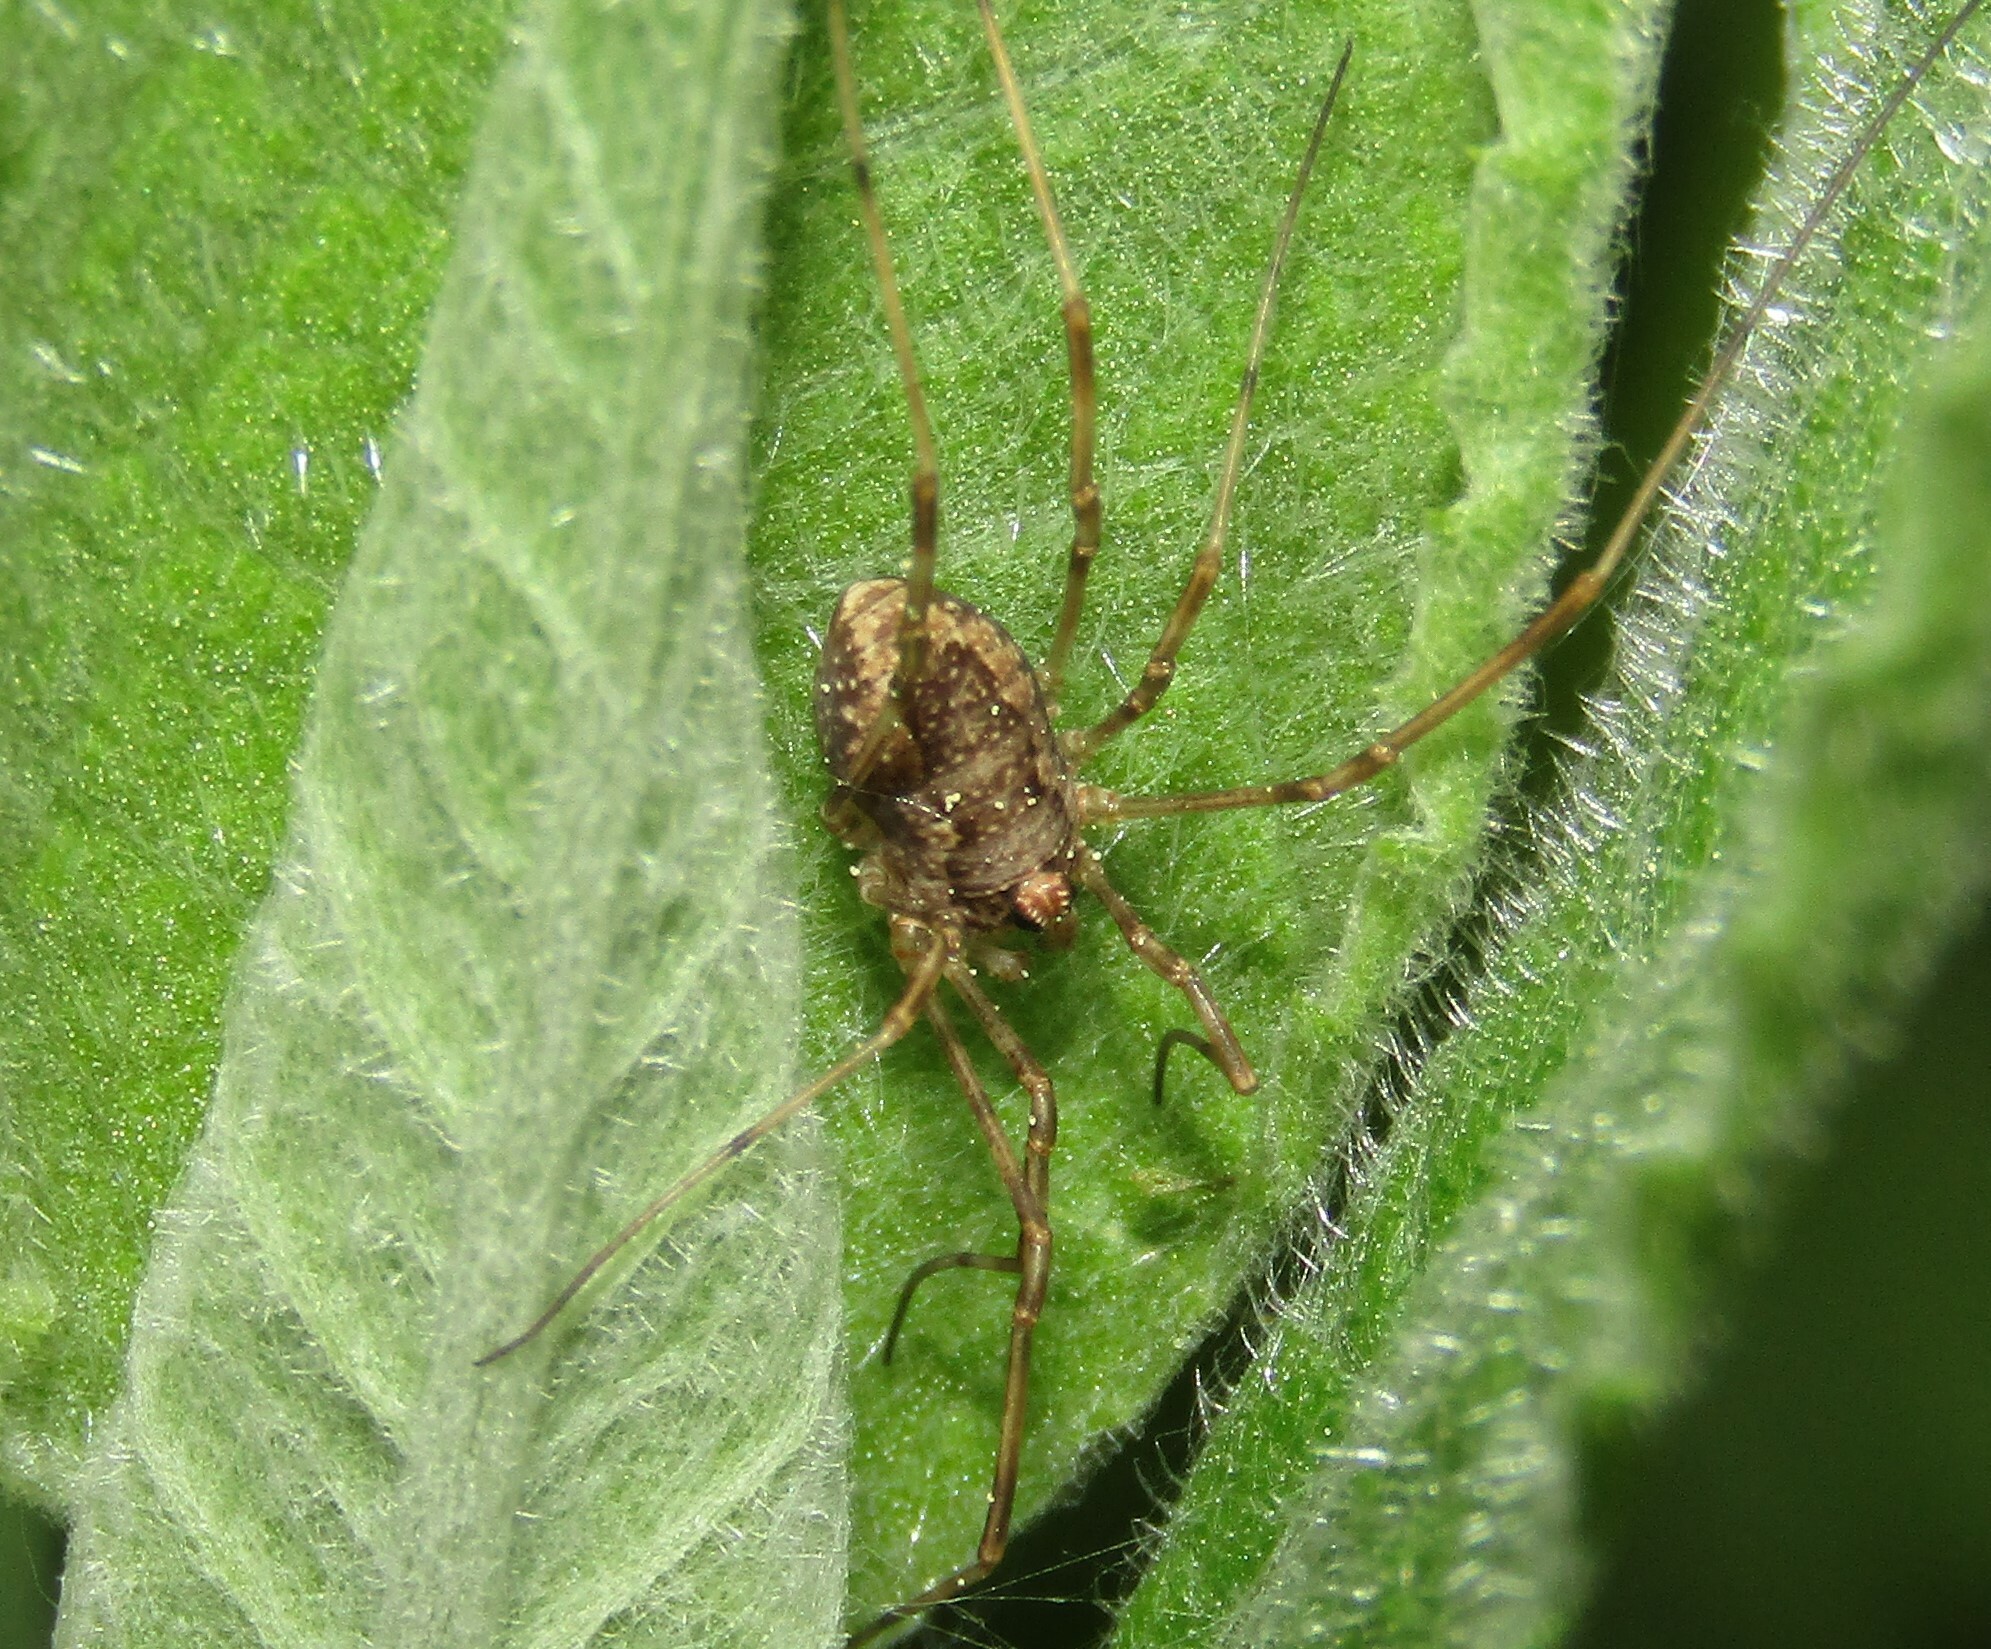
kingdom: Animalia
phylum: Arthropoda
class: Arachnida
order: Opiliones
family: Phalangiidae
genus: Rilaena
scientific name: Rilaena triangularis
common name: Spring harvestman
